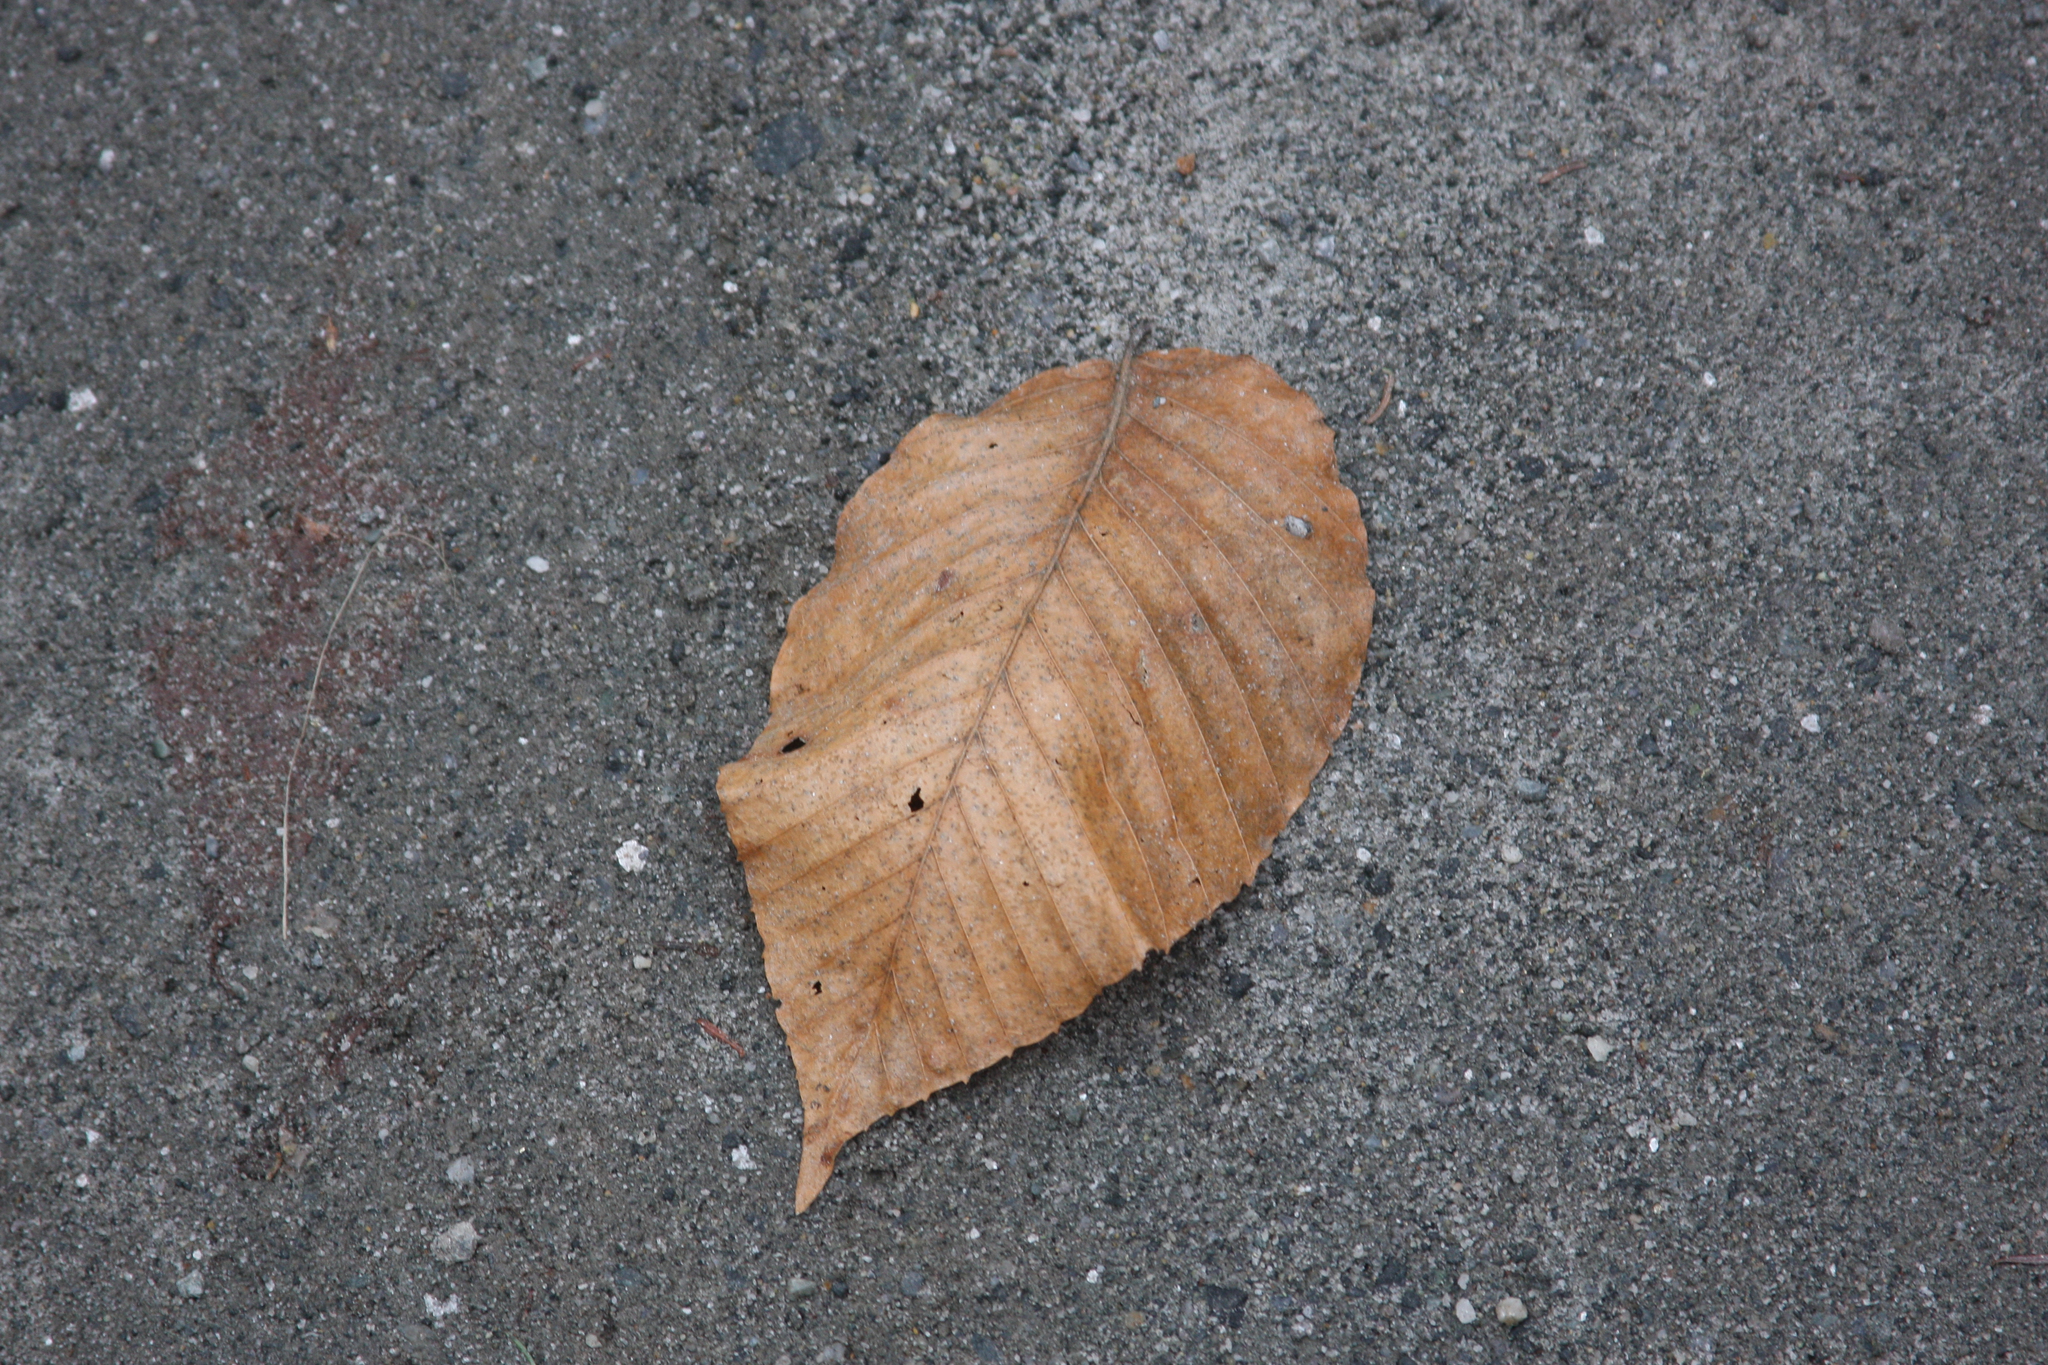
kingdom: Plantae
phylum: Tracheophyta
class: Magnoliopsida
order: Fagales
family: Fagaceae
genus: Fagus
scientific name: Fagus grandifolia
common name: American beech
